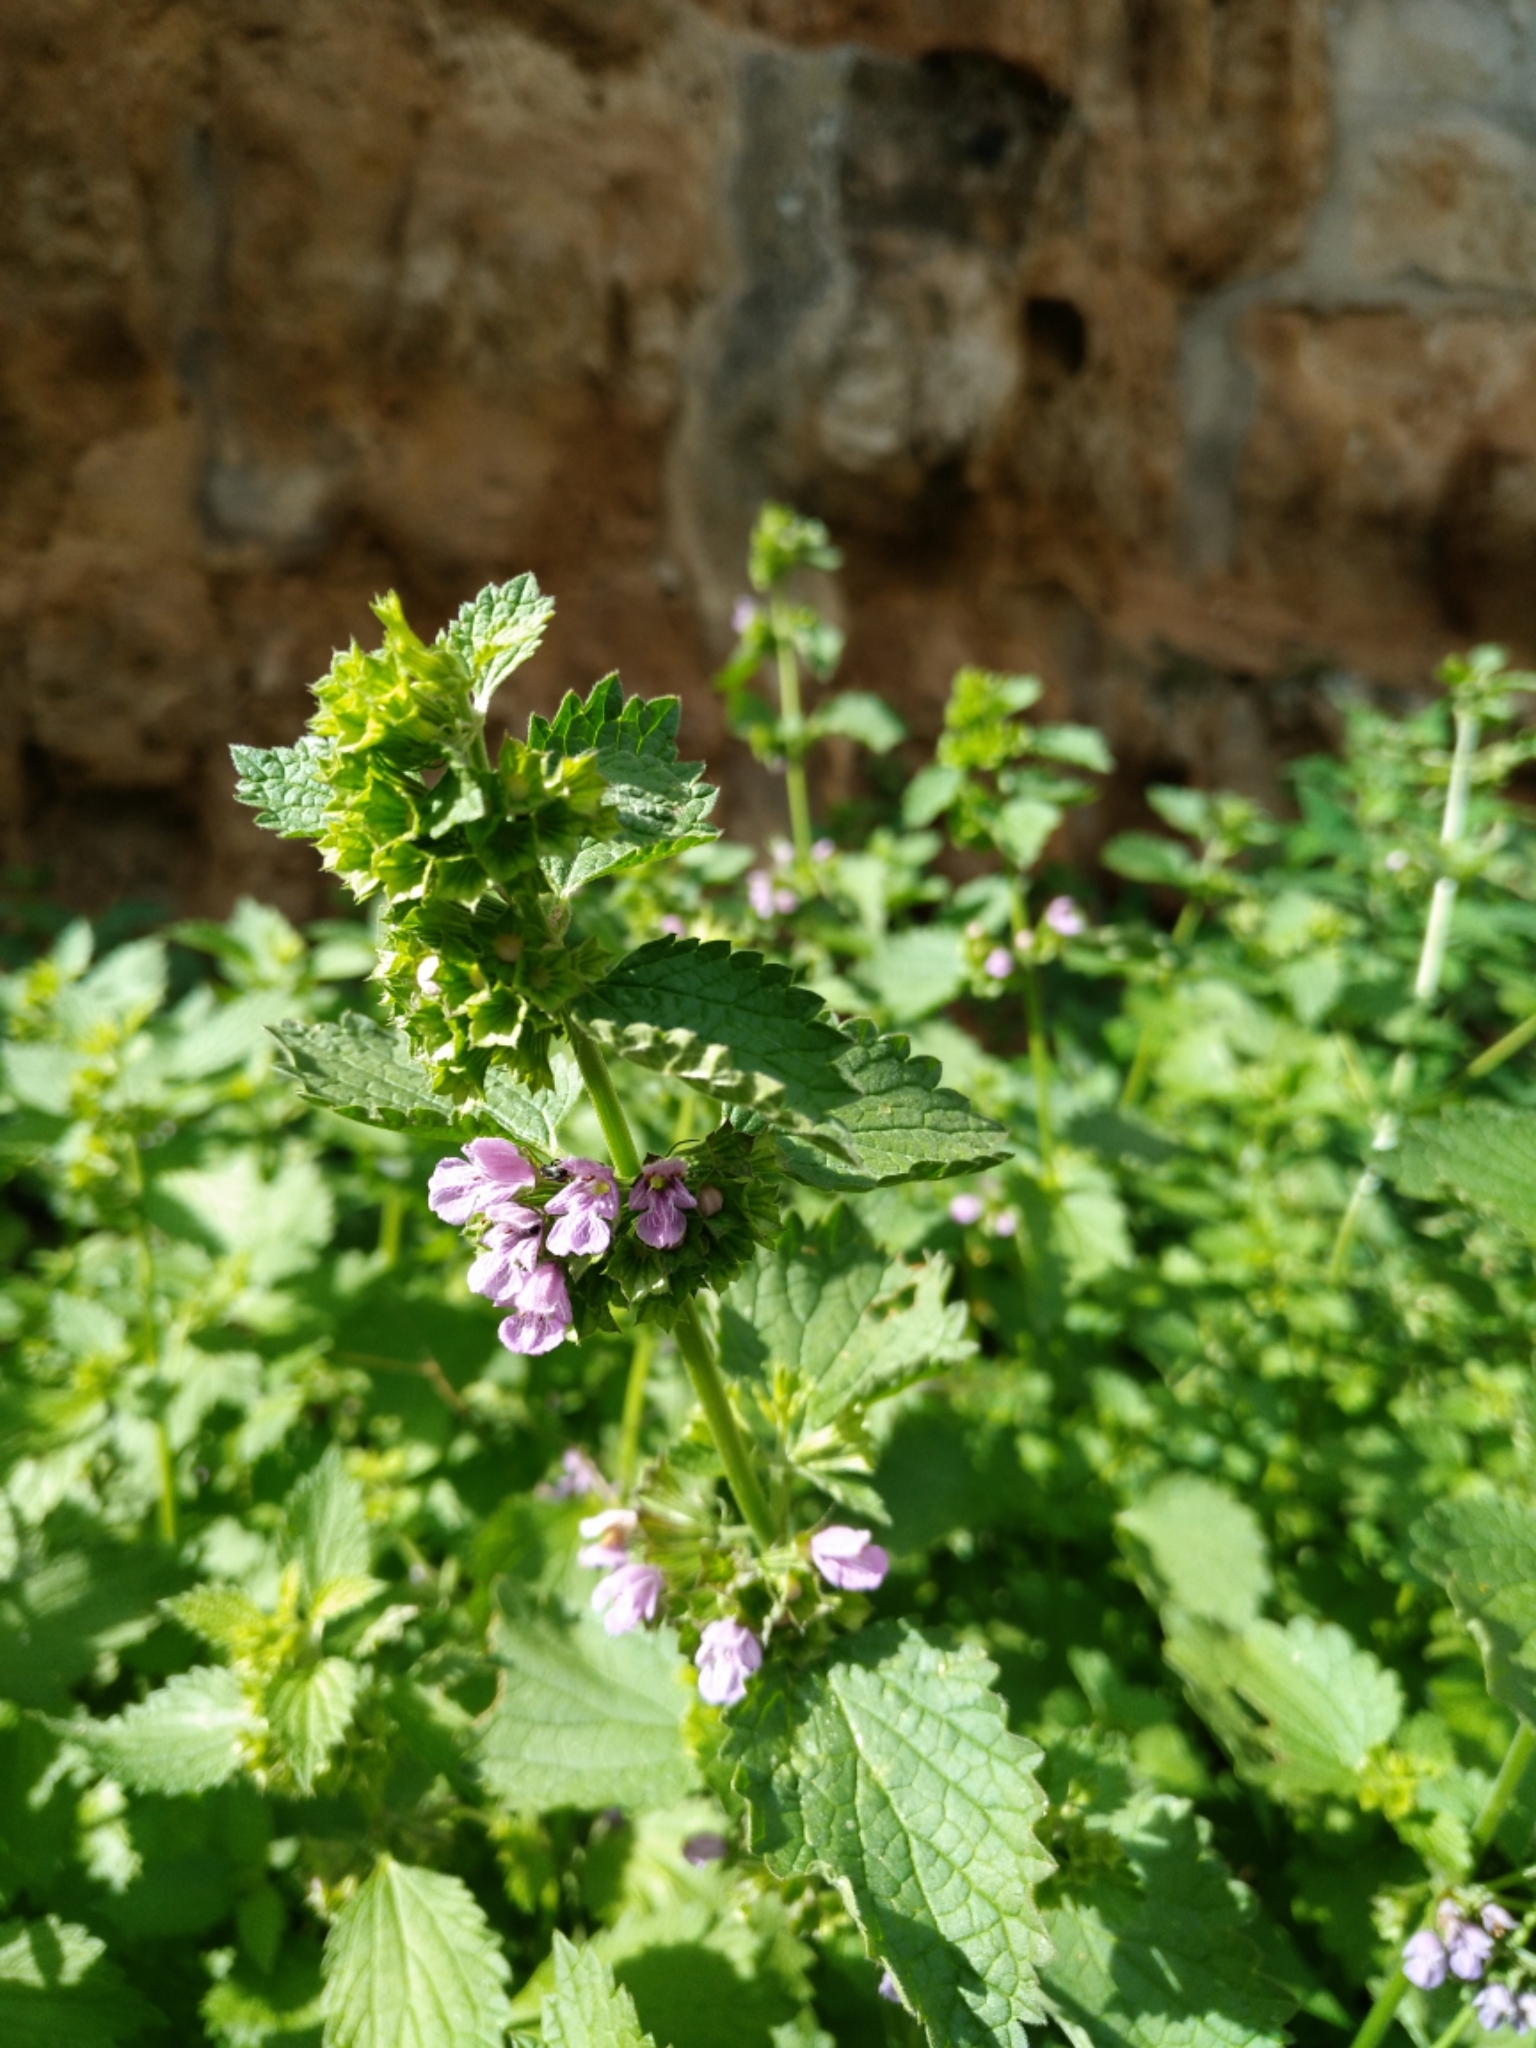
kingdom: Plantae
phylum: Tracheophyta
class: Magnoliopsida
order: Lamiales
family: Lamiaceae
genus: Ballota
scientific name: Ballota nigra
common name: Black horehound
